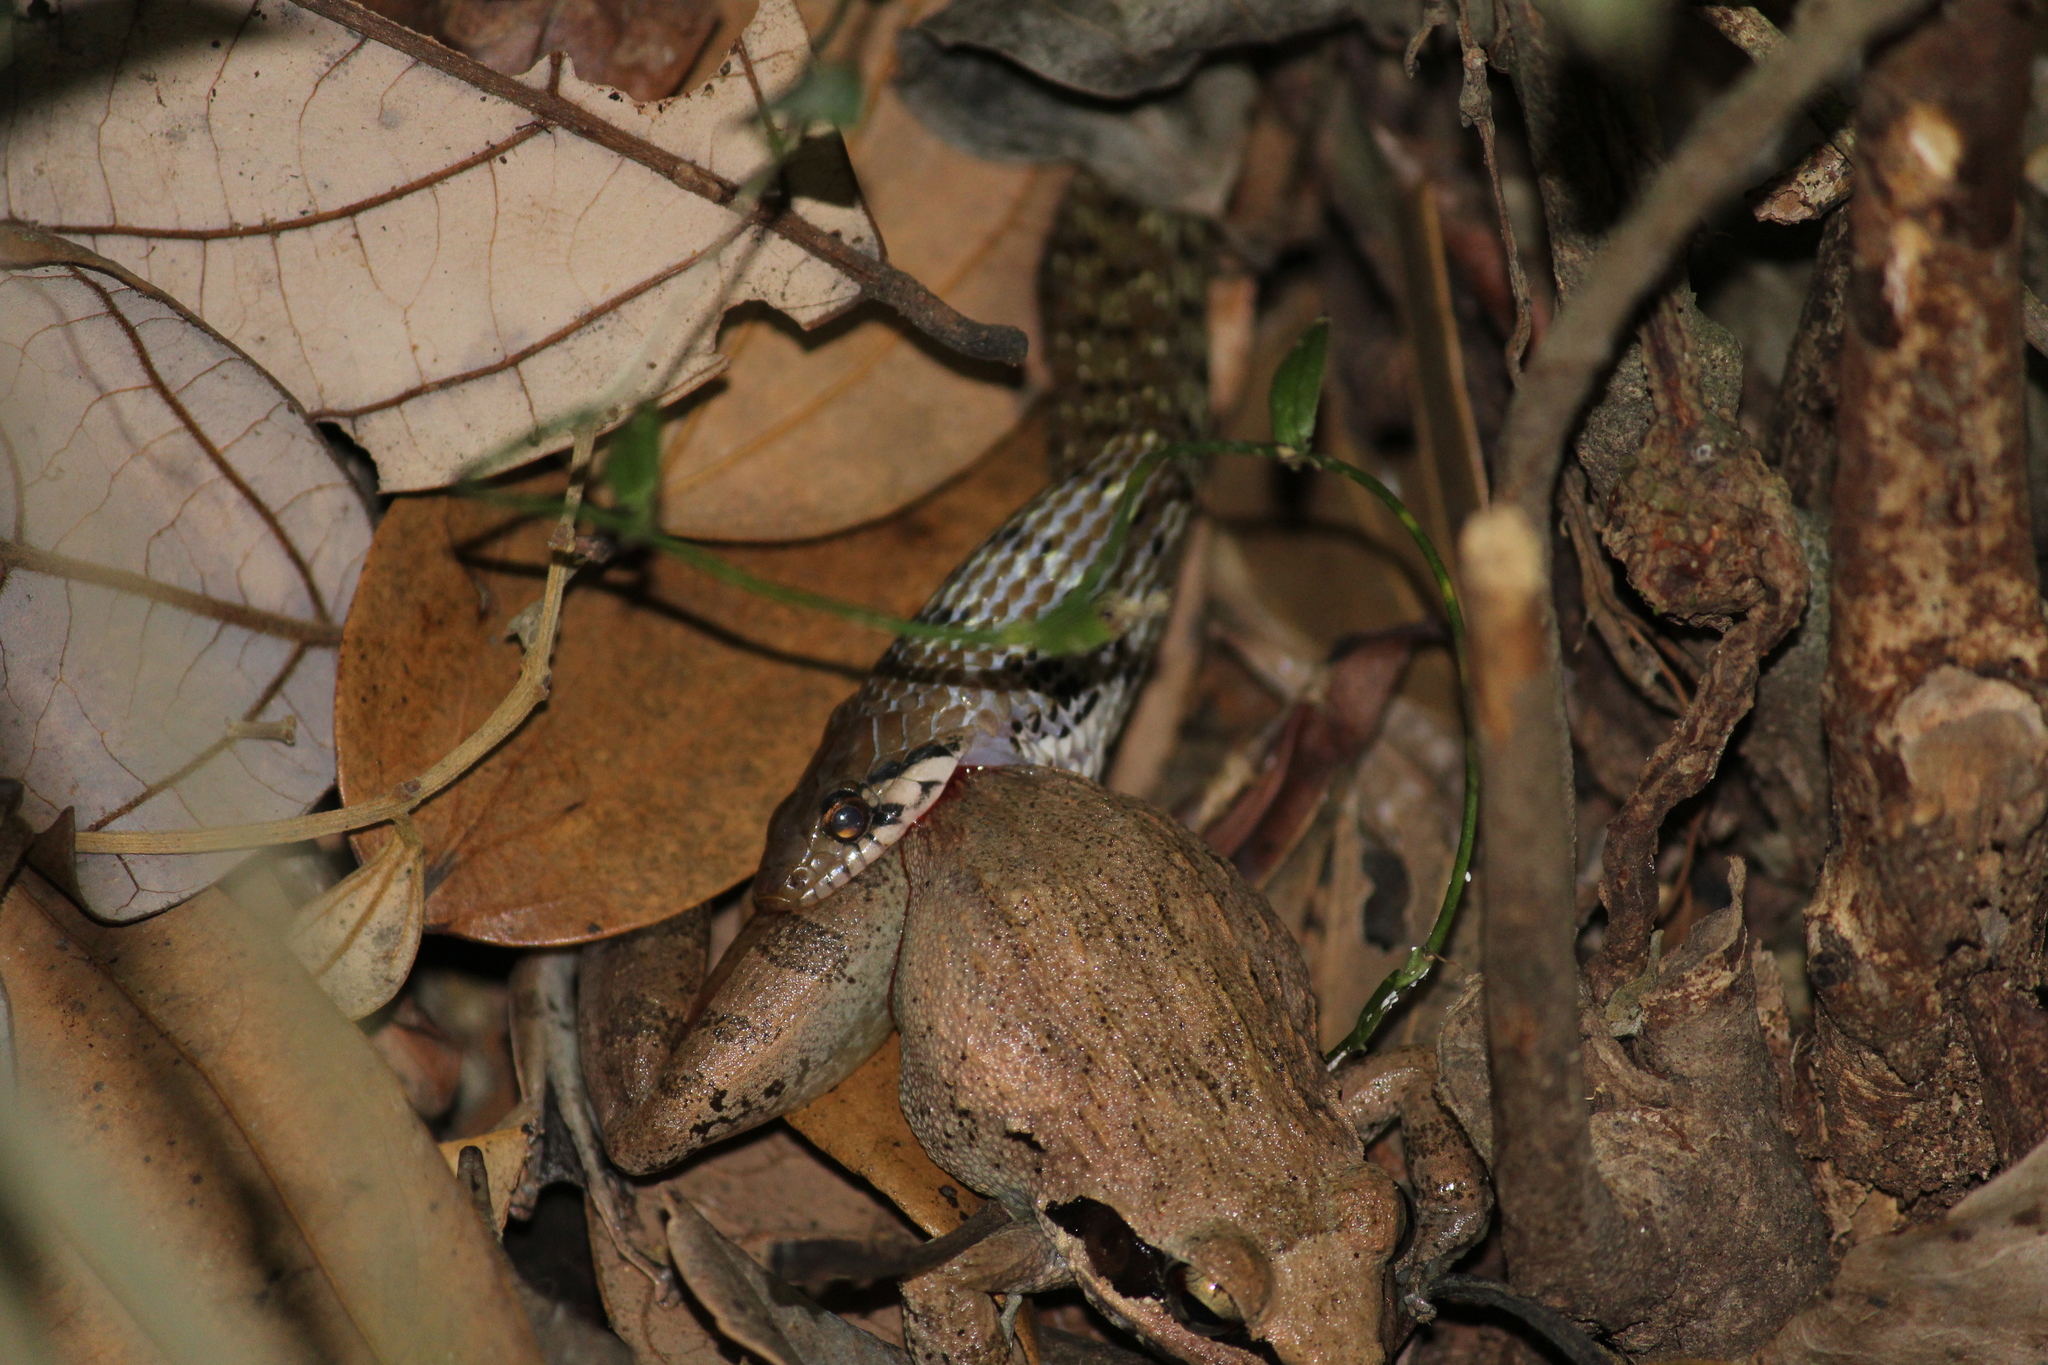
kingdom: Animalia
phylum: Chordata
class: Squamata
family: Colubridae
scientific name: Colubridae
